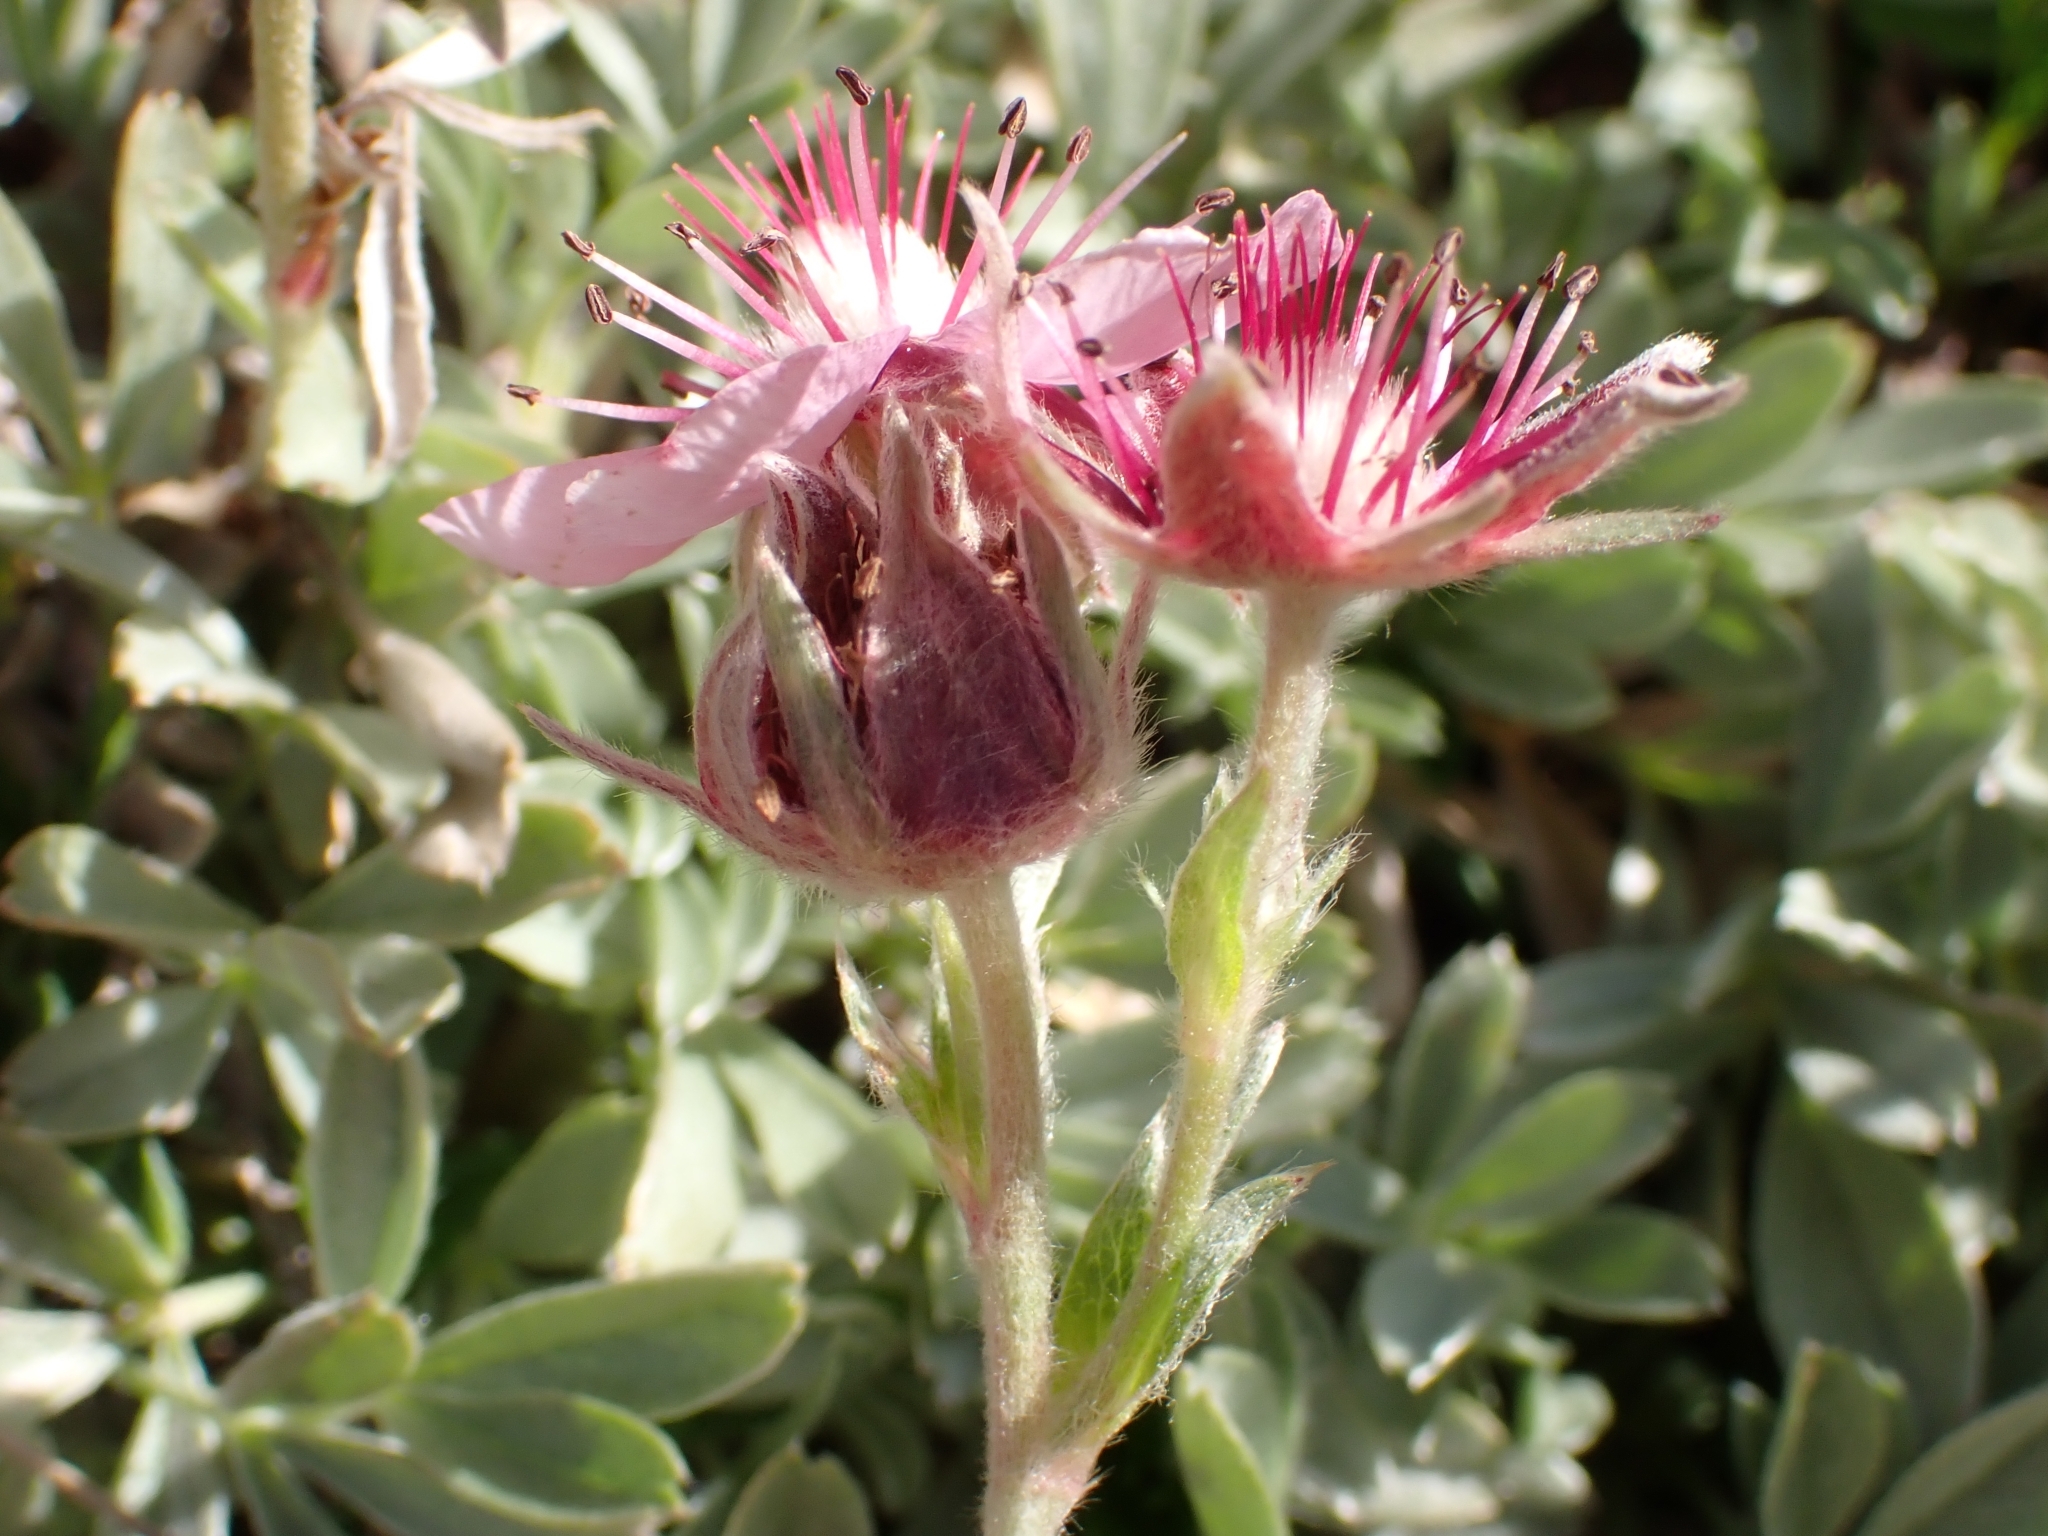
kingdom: Plantae
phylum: Tracheophyta
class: Magnoliopsida
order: Rosales
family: Rosaceae
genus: Potentilla
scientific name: Potentilla nitida
